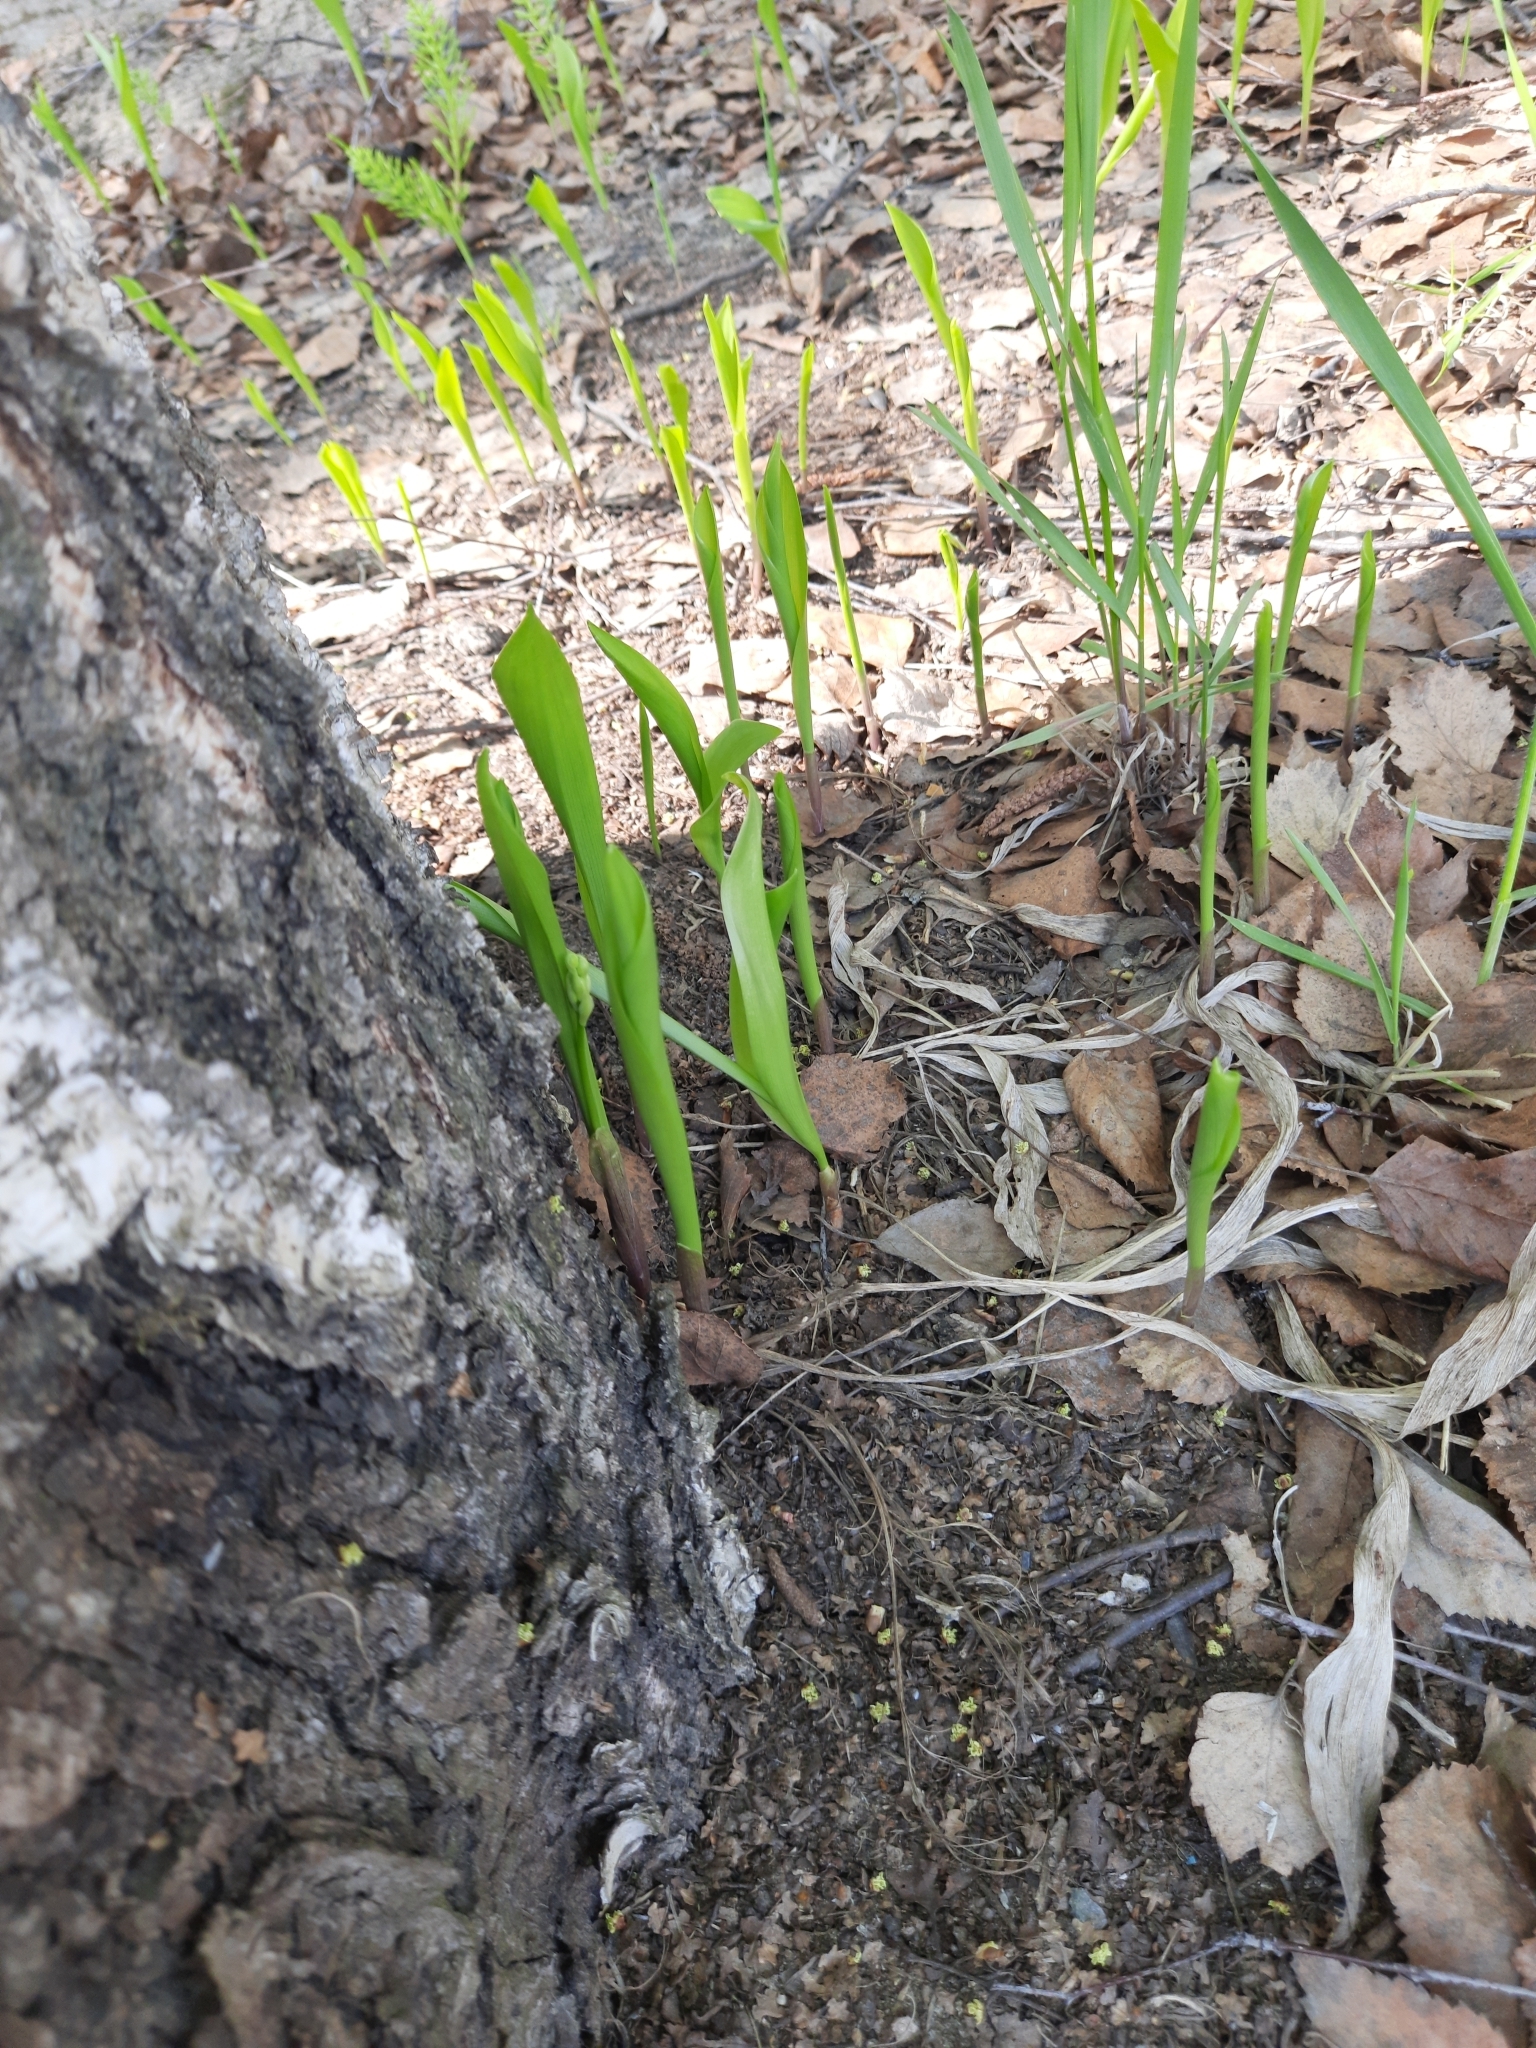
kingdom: Plantae
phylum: Tracheophyta
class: Liliopsida
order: Asparagales
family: Asparagaceae
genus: Convallaria
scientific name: Convallaria majalis
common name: Lily-of-the-valley
